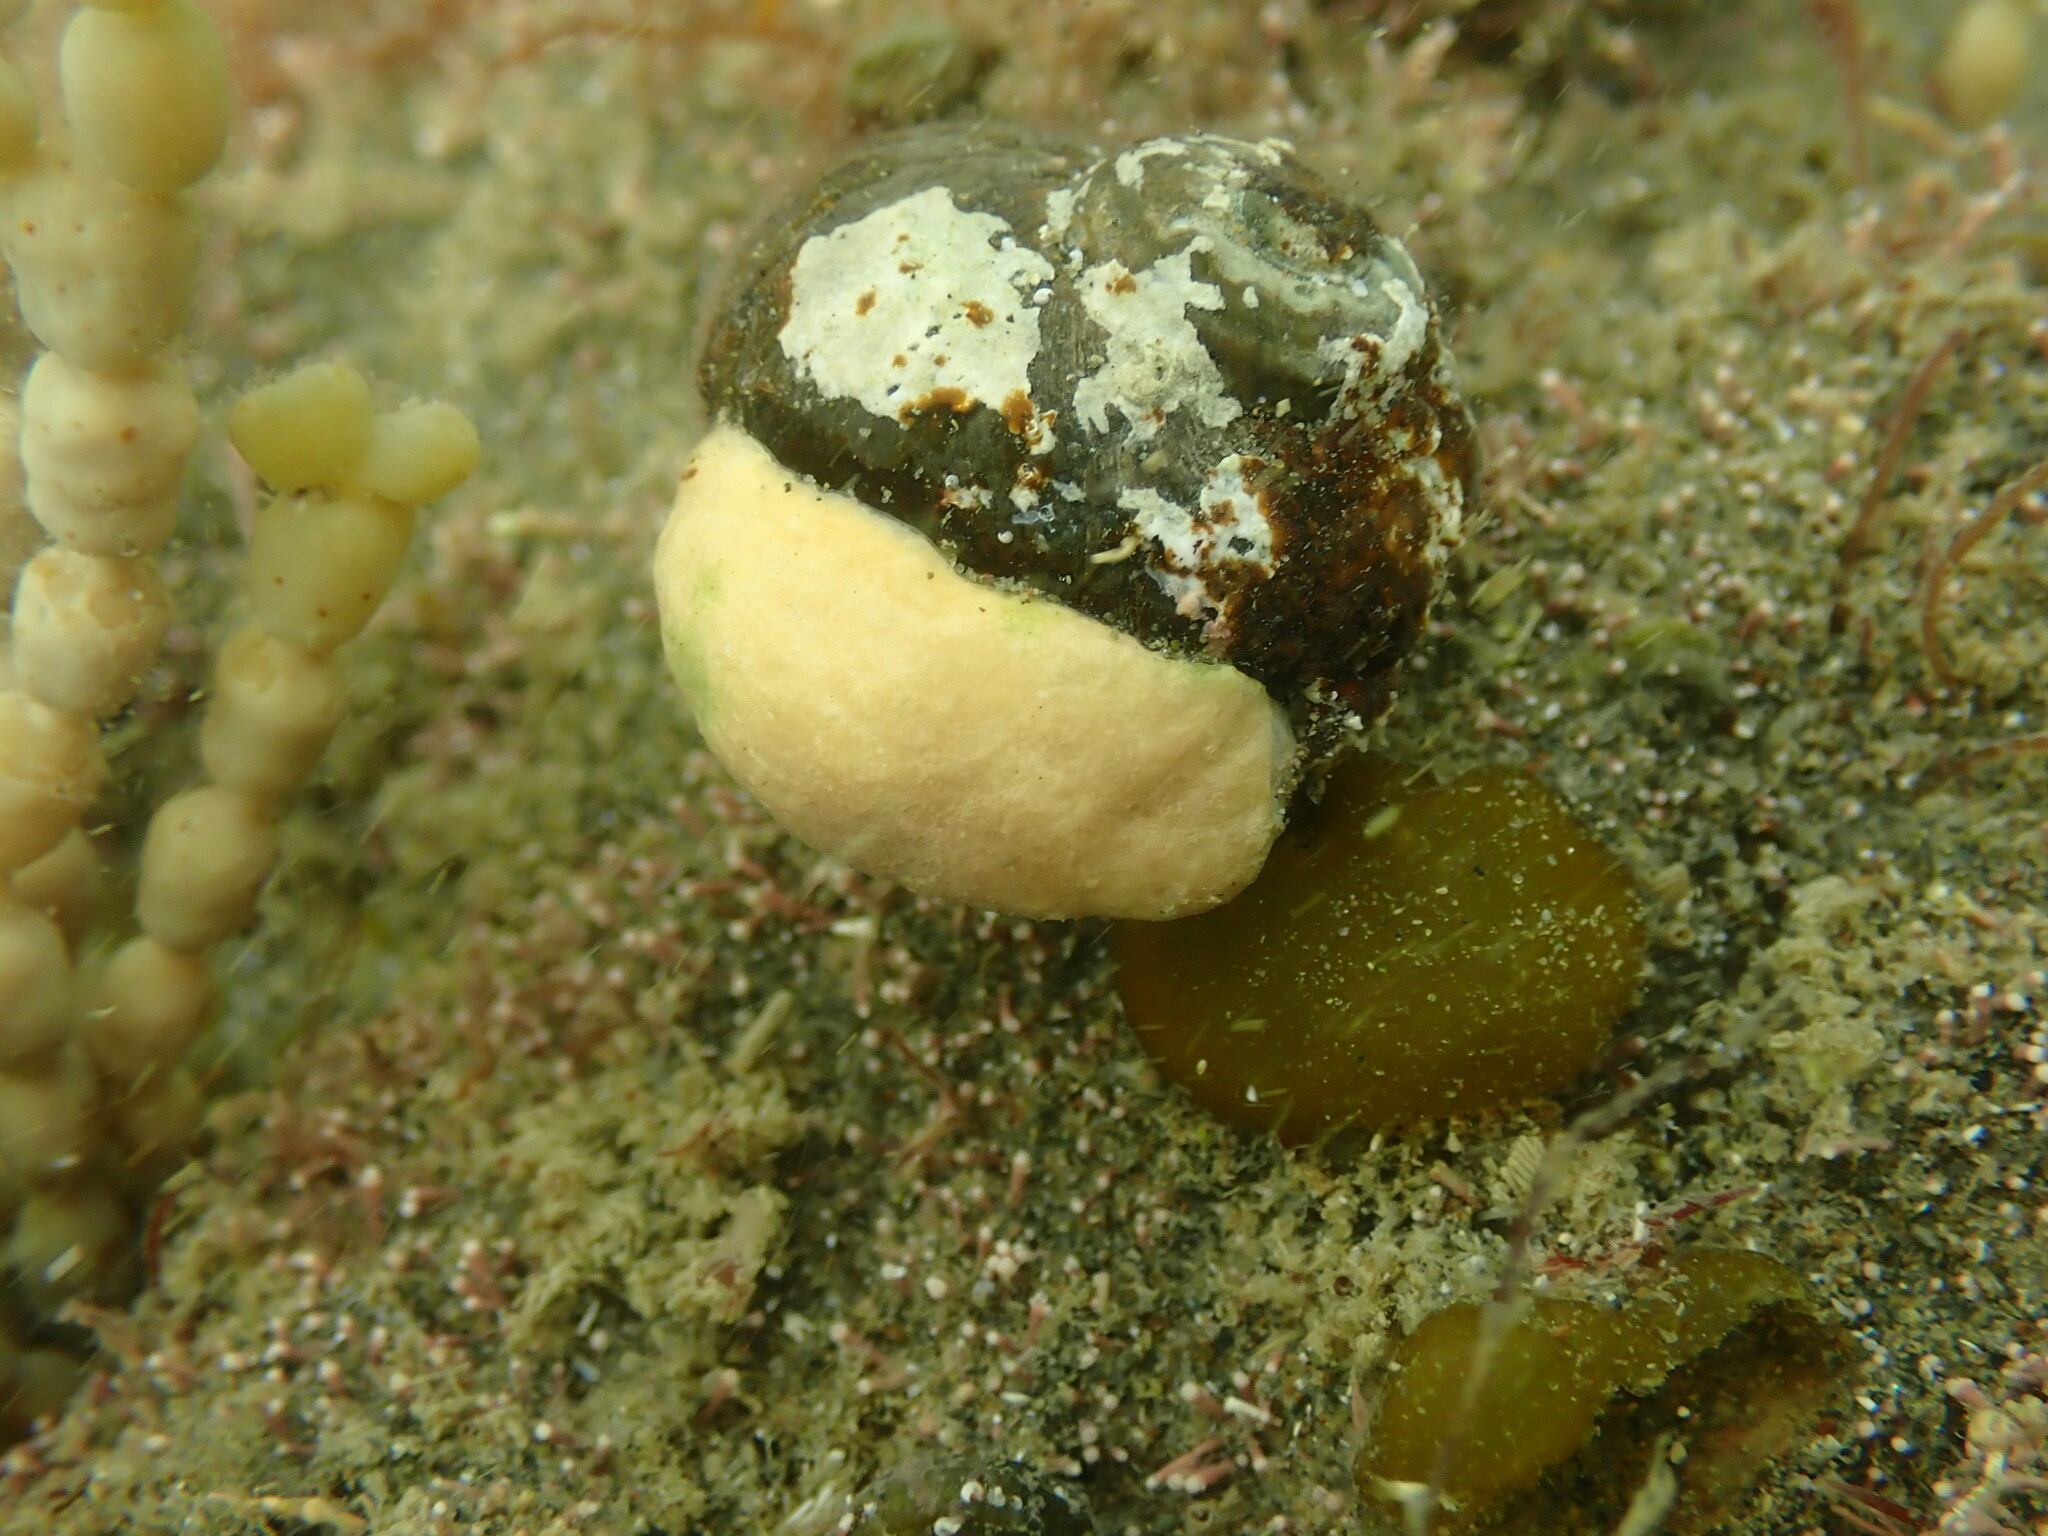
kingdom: Animalia
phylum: Mollusca
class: Gastropoda
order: Littorinimorpha
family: Calyptraeidae
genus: Maoricrypta
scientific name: Maoricrypta monoxyla
